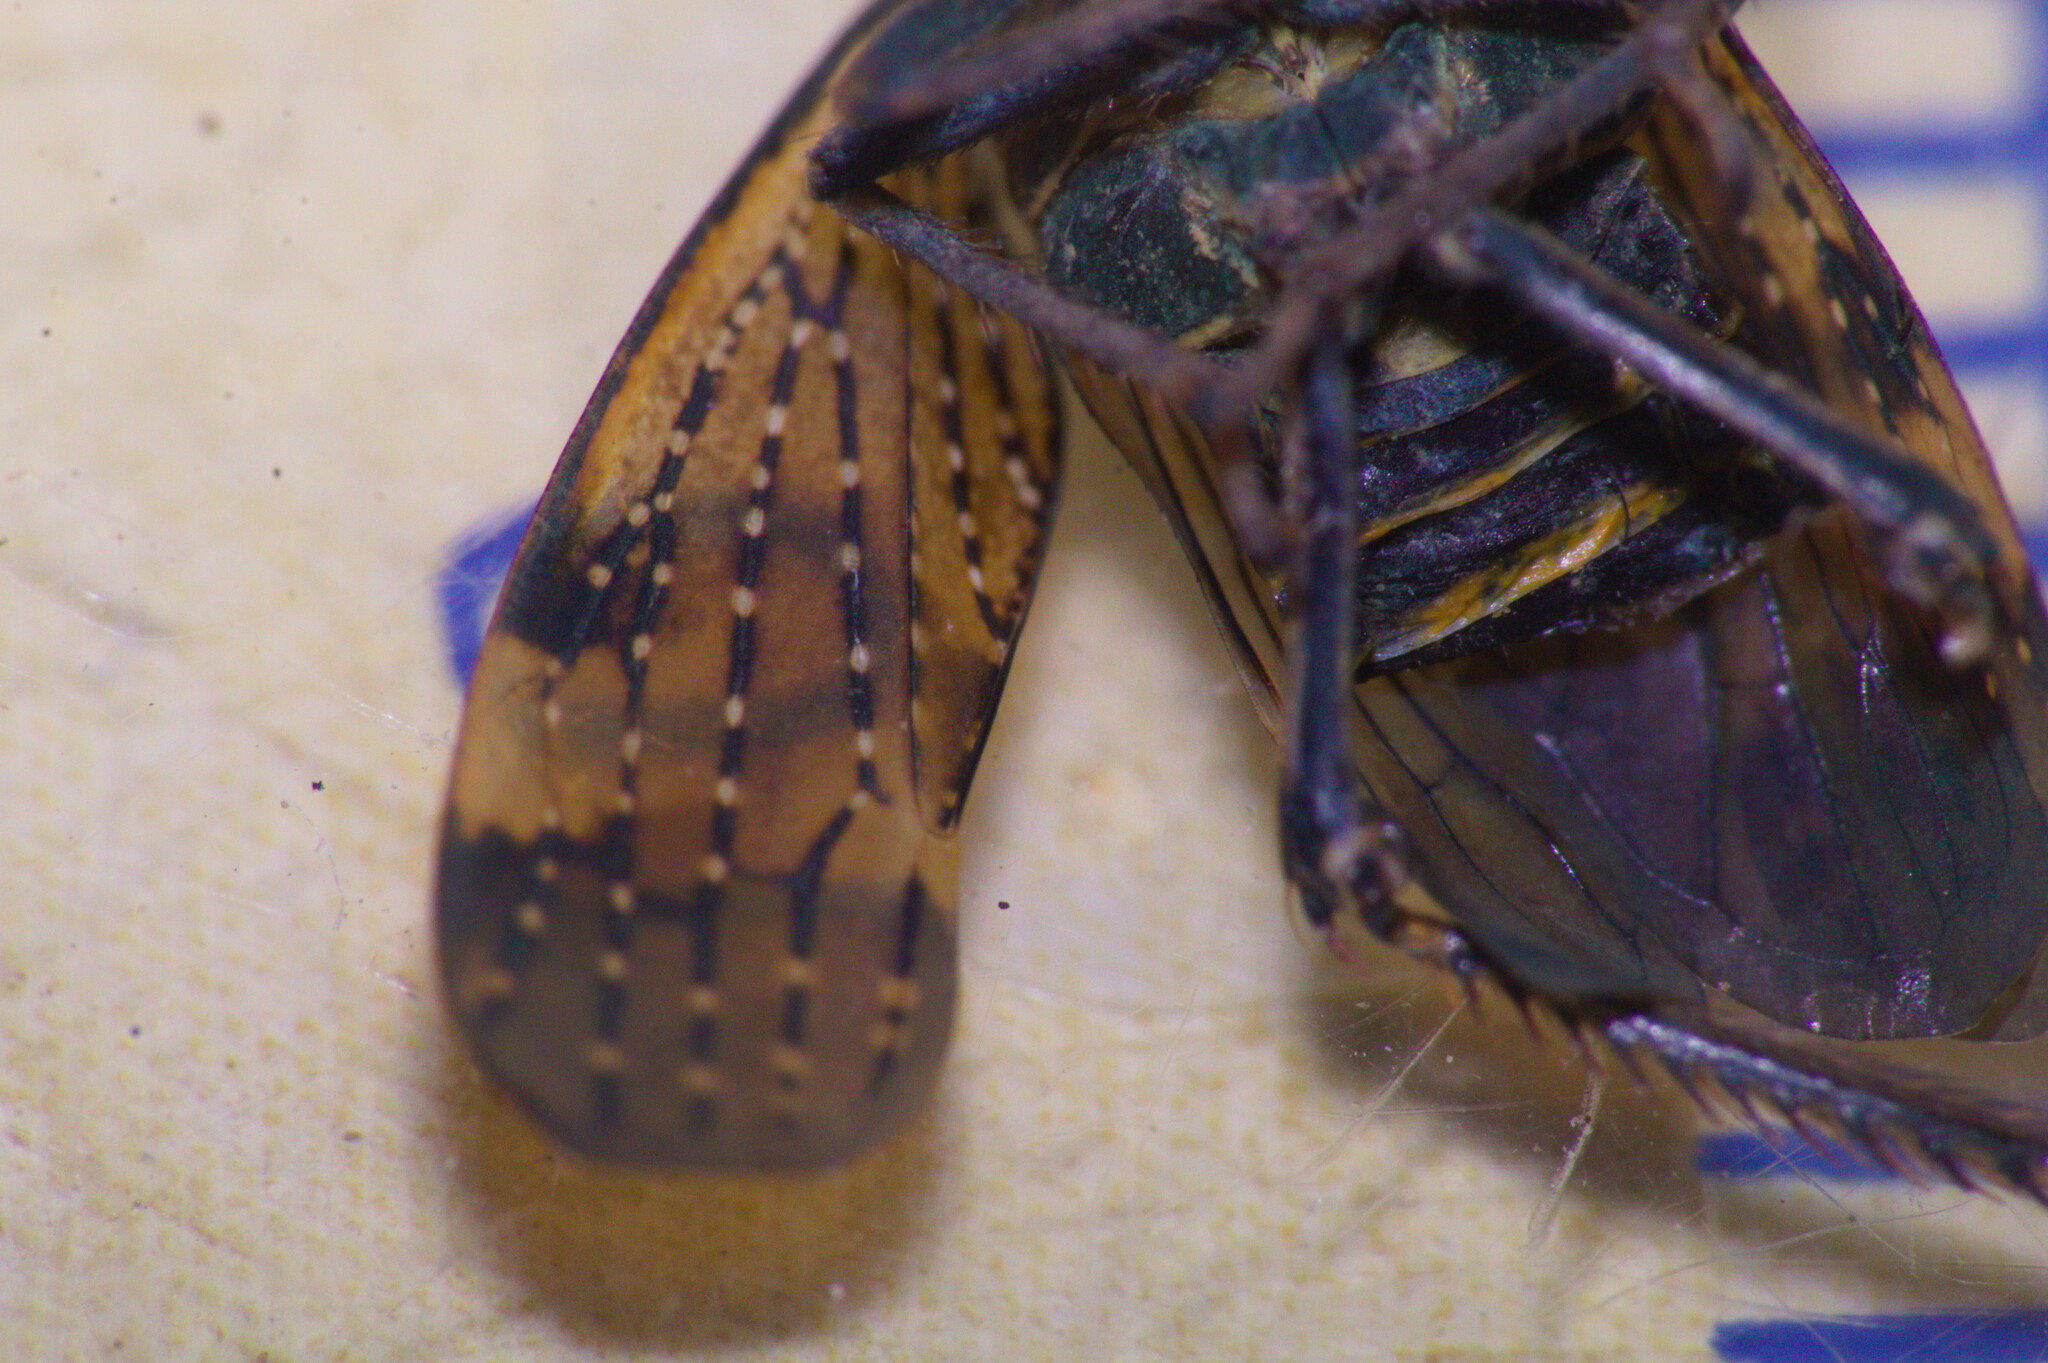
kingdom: Animalia
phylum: Arthropoda
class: Insecta
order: Hemiptera
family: Cicadellidae
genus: Stalolidia
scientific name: Stalolidia fascifrons
